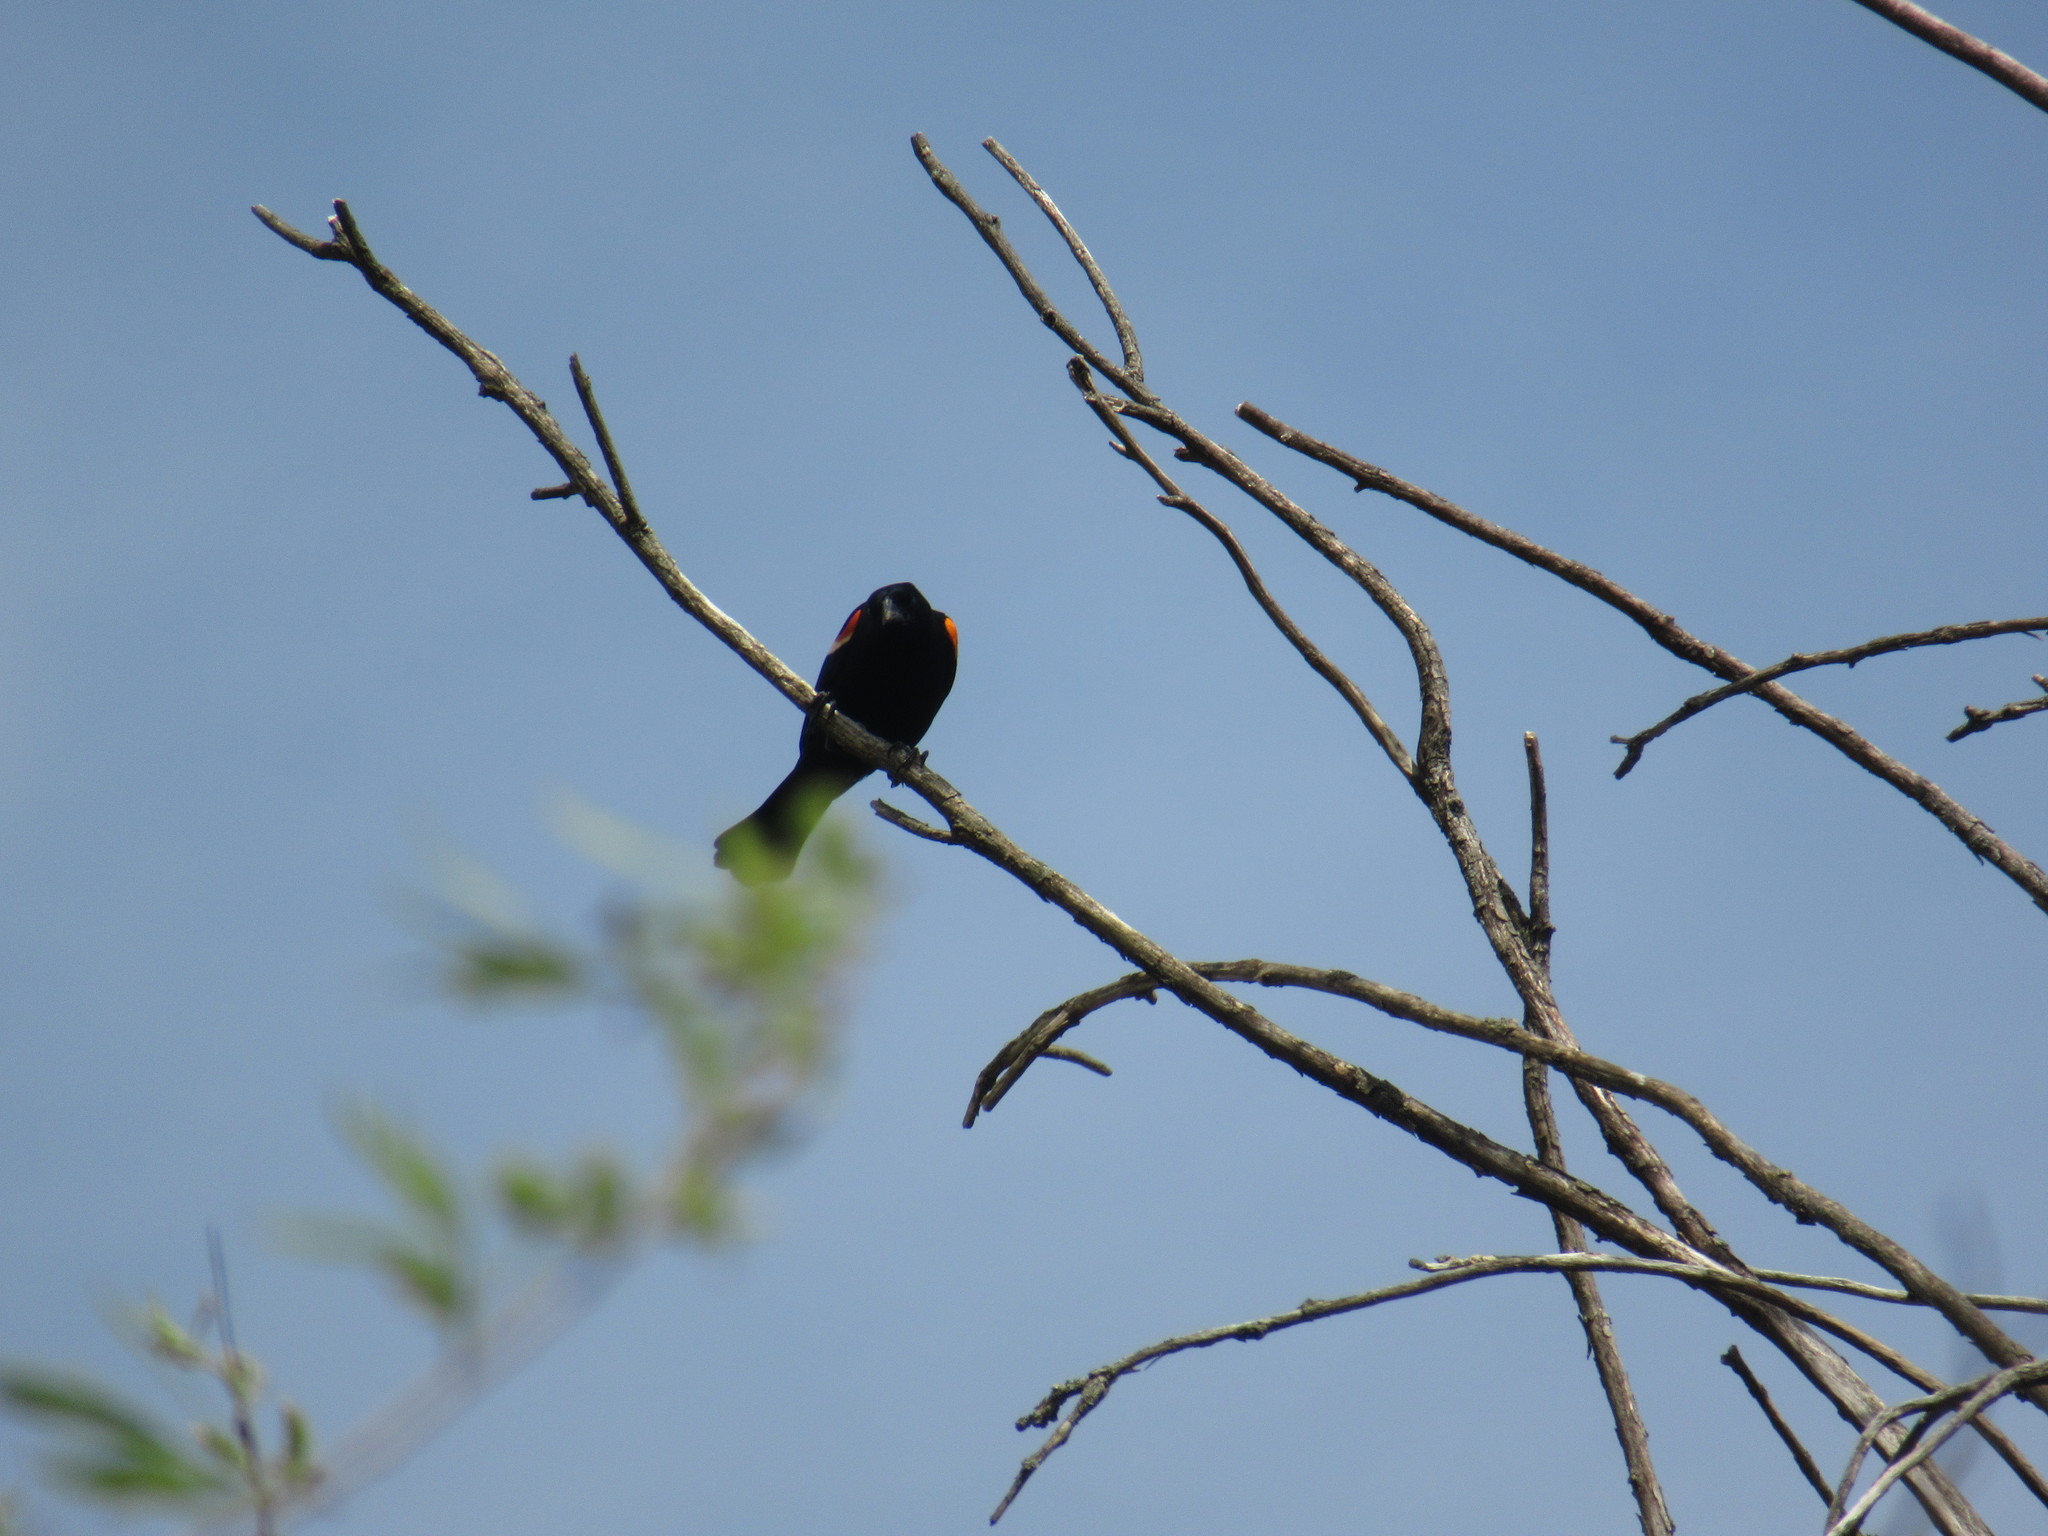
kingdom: Animalia
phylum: Chordata
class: Aves
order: Passeriformes
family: Icteridae
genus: Agelaius
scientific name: Agelaius phoeniceus
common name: Red-winged blackbird
